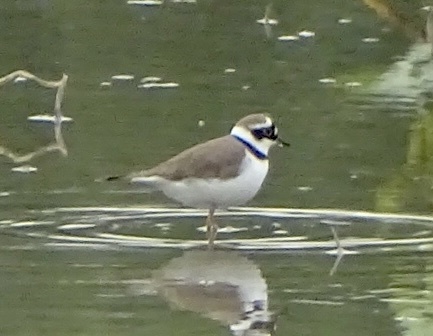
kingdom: Animalia
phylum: Chordata
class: Aves
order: Charadriiformes
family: Charadriidae
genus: Charadrius
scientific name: Charadrius dubius
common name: Little ringed plover
